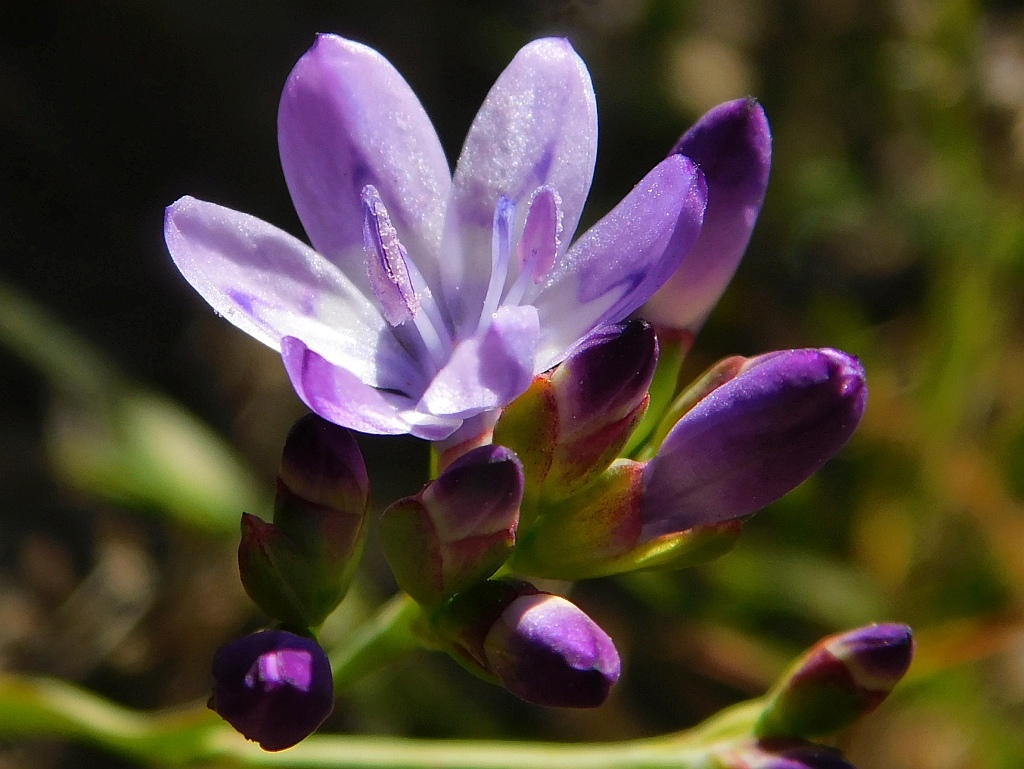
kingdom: Plantae
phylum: Tracheophyta
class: Liliopsida
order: Asparagales
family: Iridaceae
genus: Codonorhiza
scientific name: Codonorhiza corymbosa
